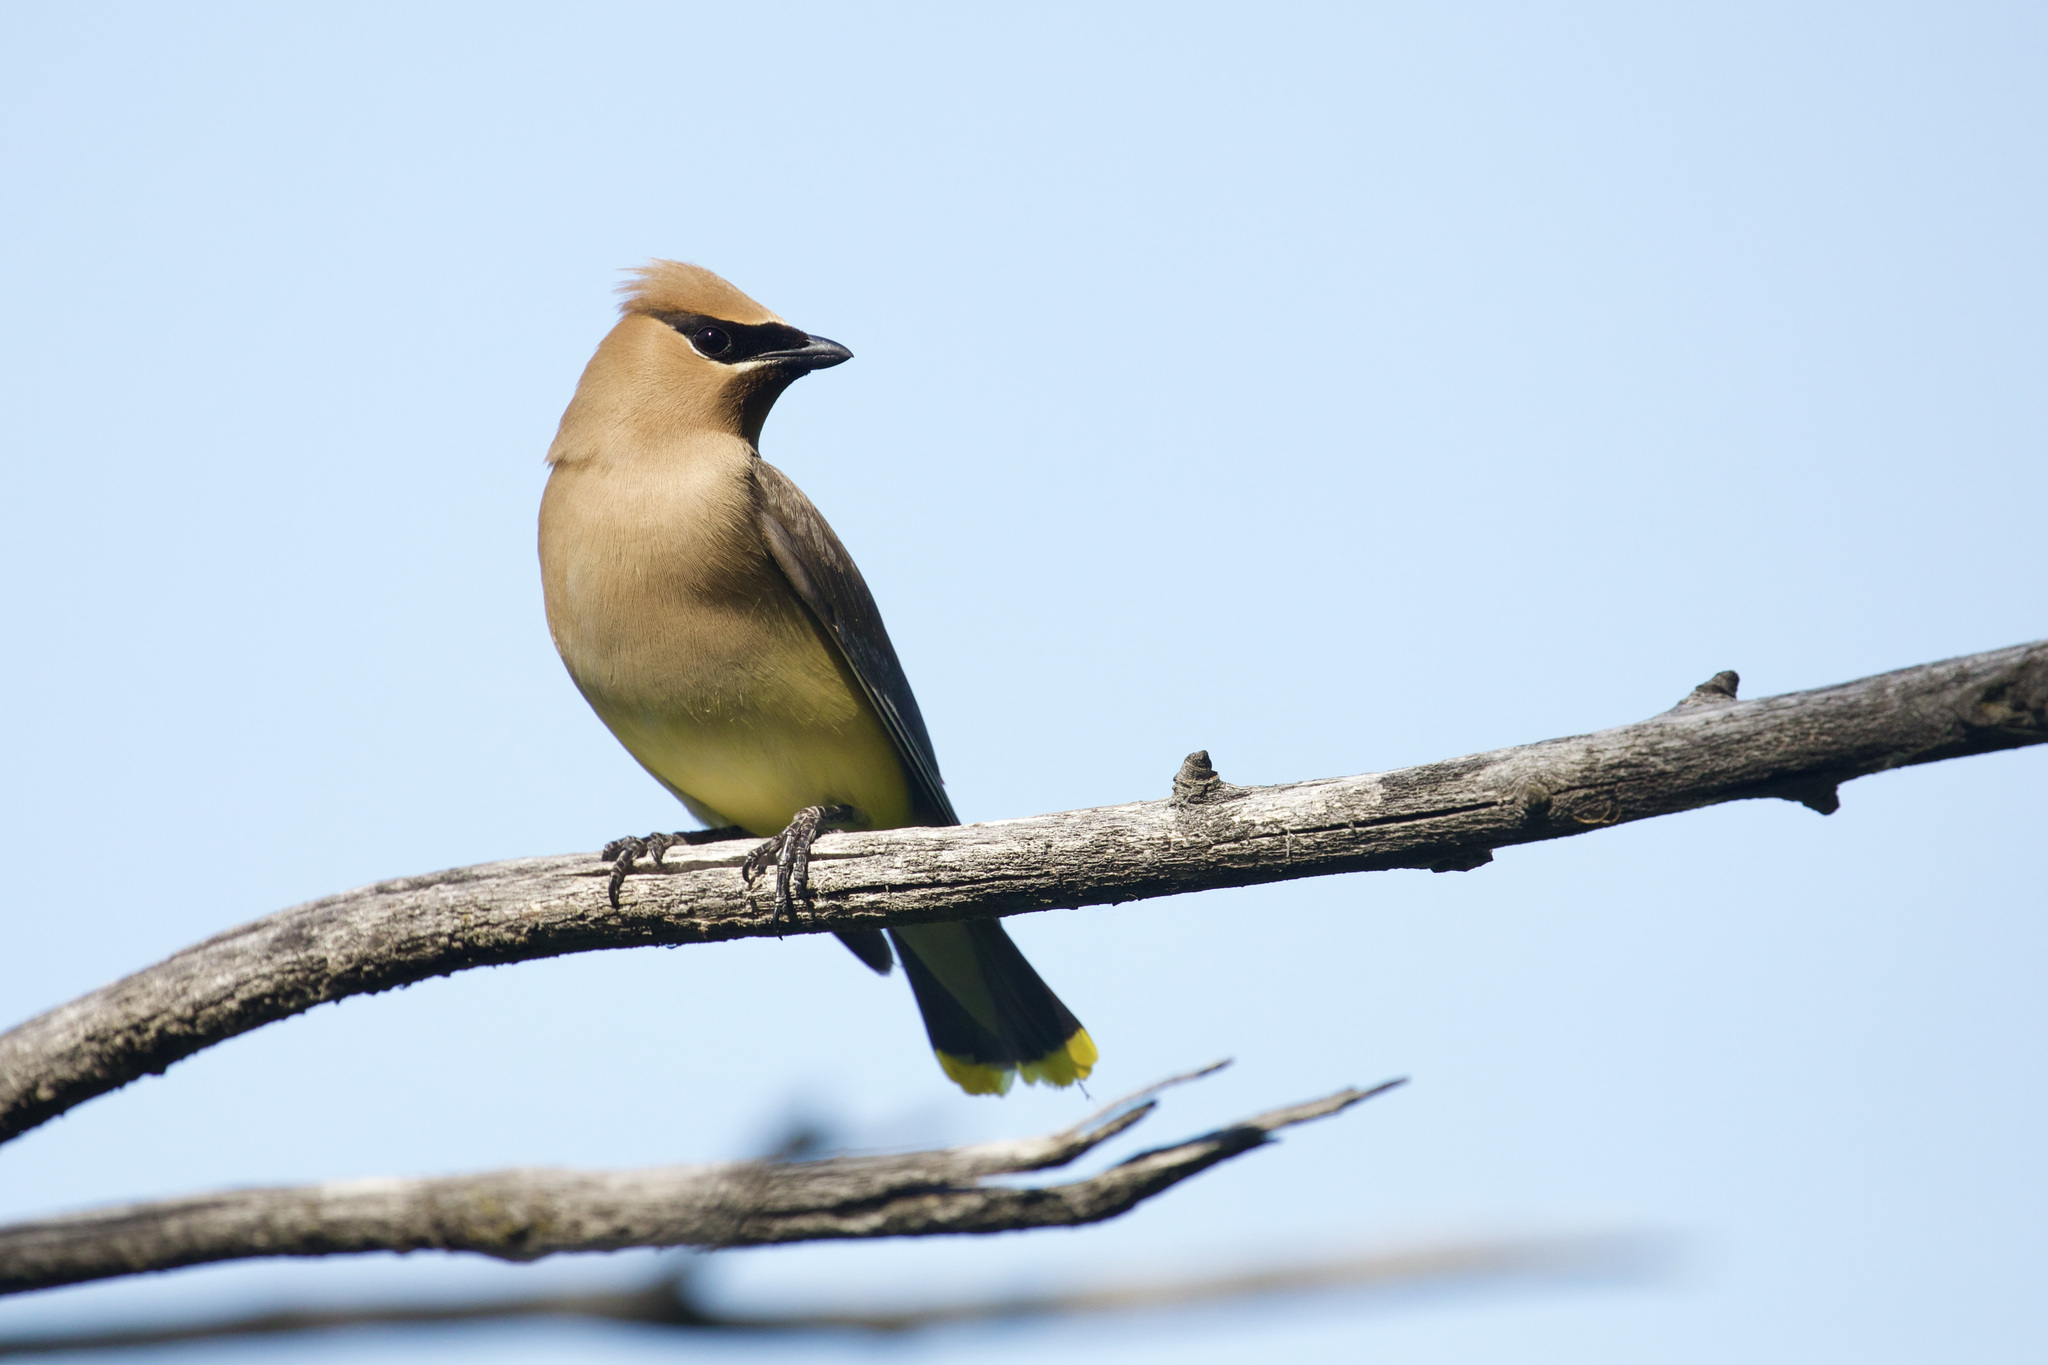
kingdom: Animalia
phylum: Chordata
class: Aves
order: Passeriformes
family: Bombycillidae
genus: Bombycilla
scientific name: Bombycilla cedrorum
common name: Cedar waxwing
